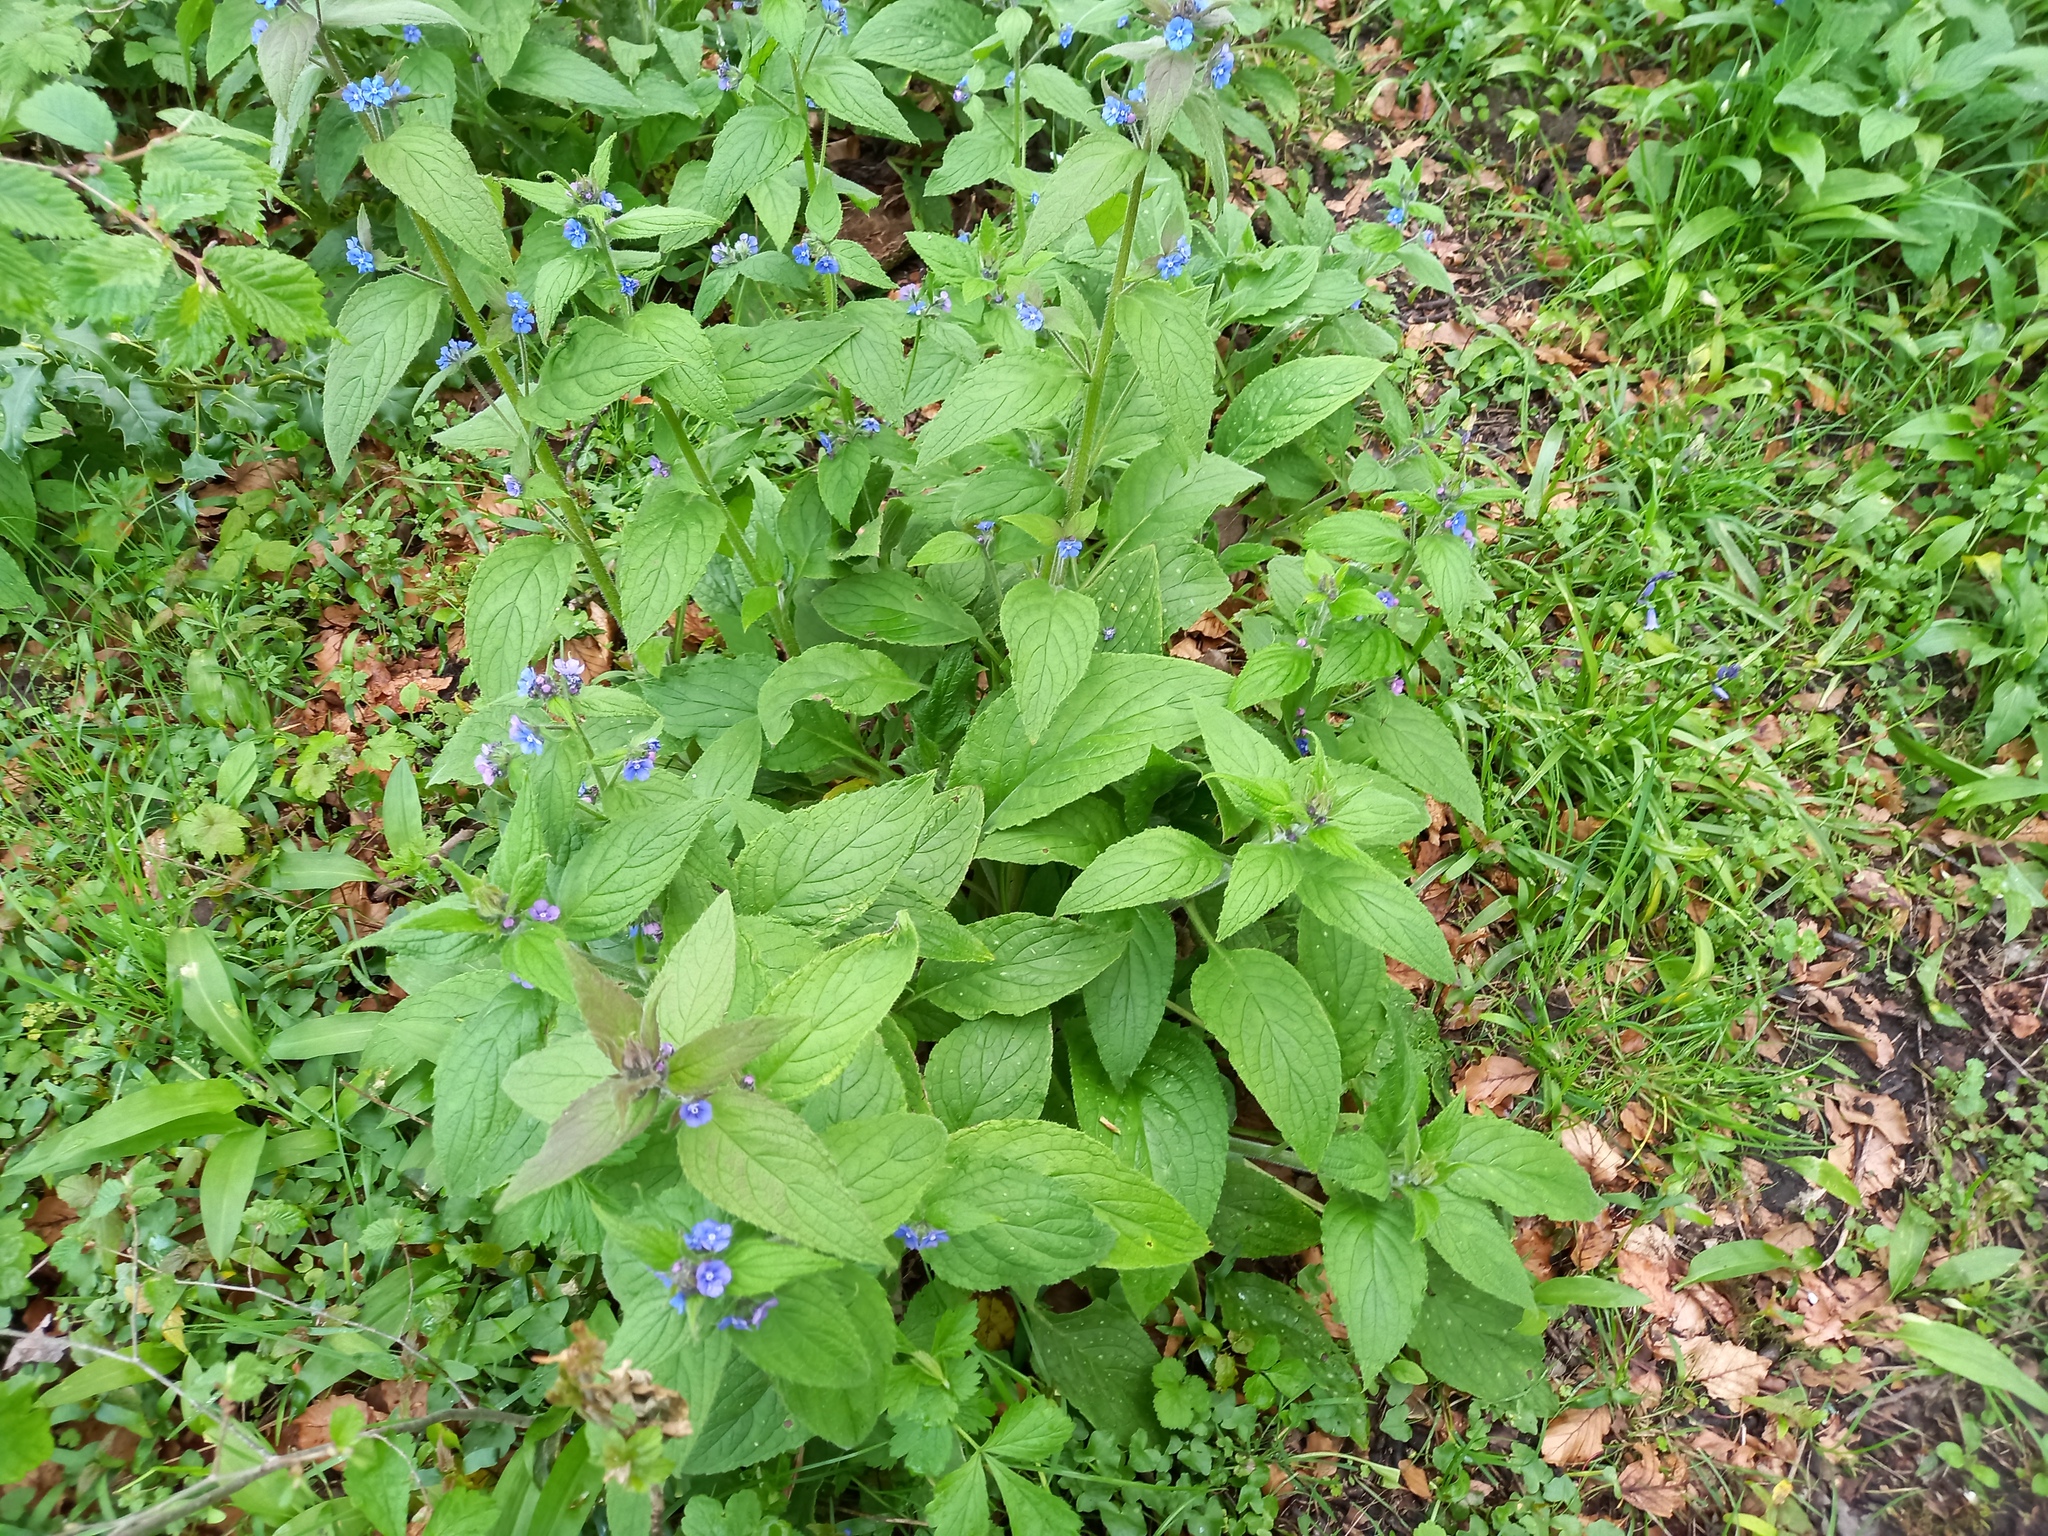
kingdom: Plantae
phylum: Tracheophyta
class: Magnoliopsida
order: Boraginales
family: Boraginaceae
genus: Pentaglottis
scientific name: Pentaglottis sempervirens
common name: Green alkanet
